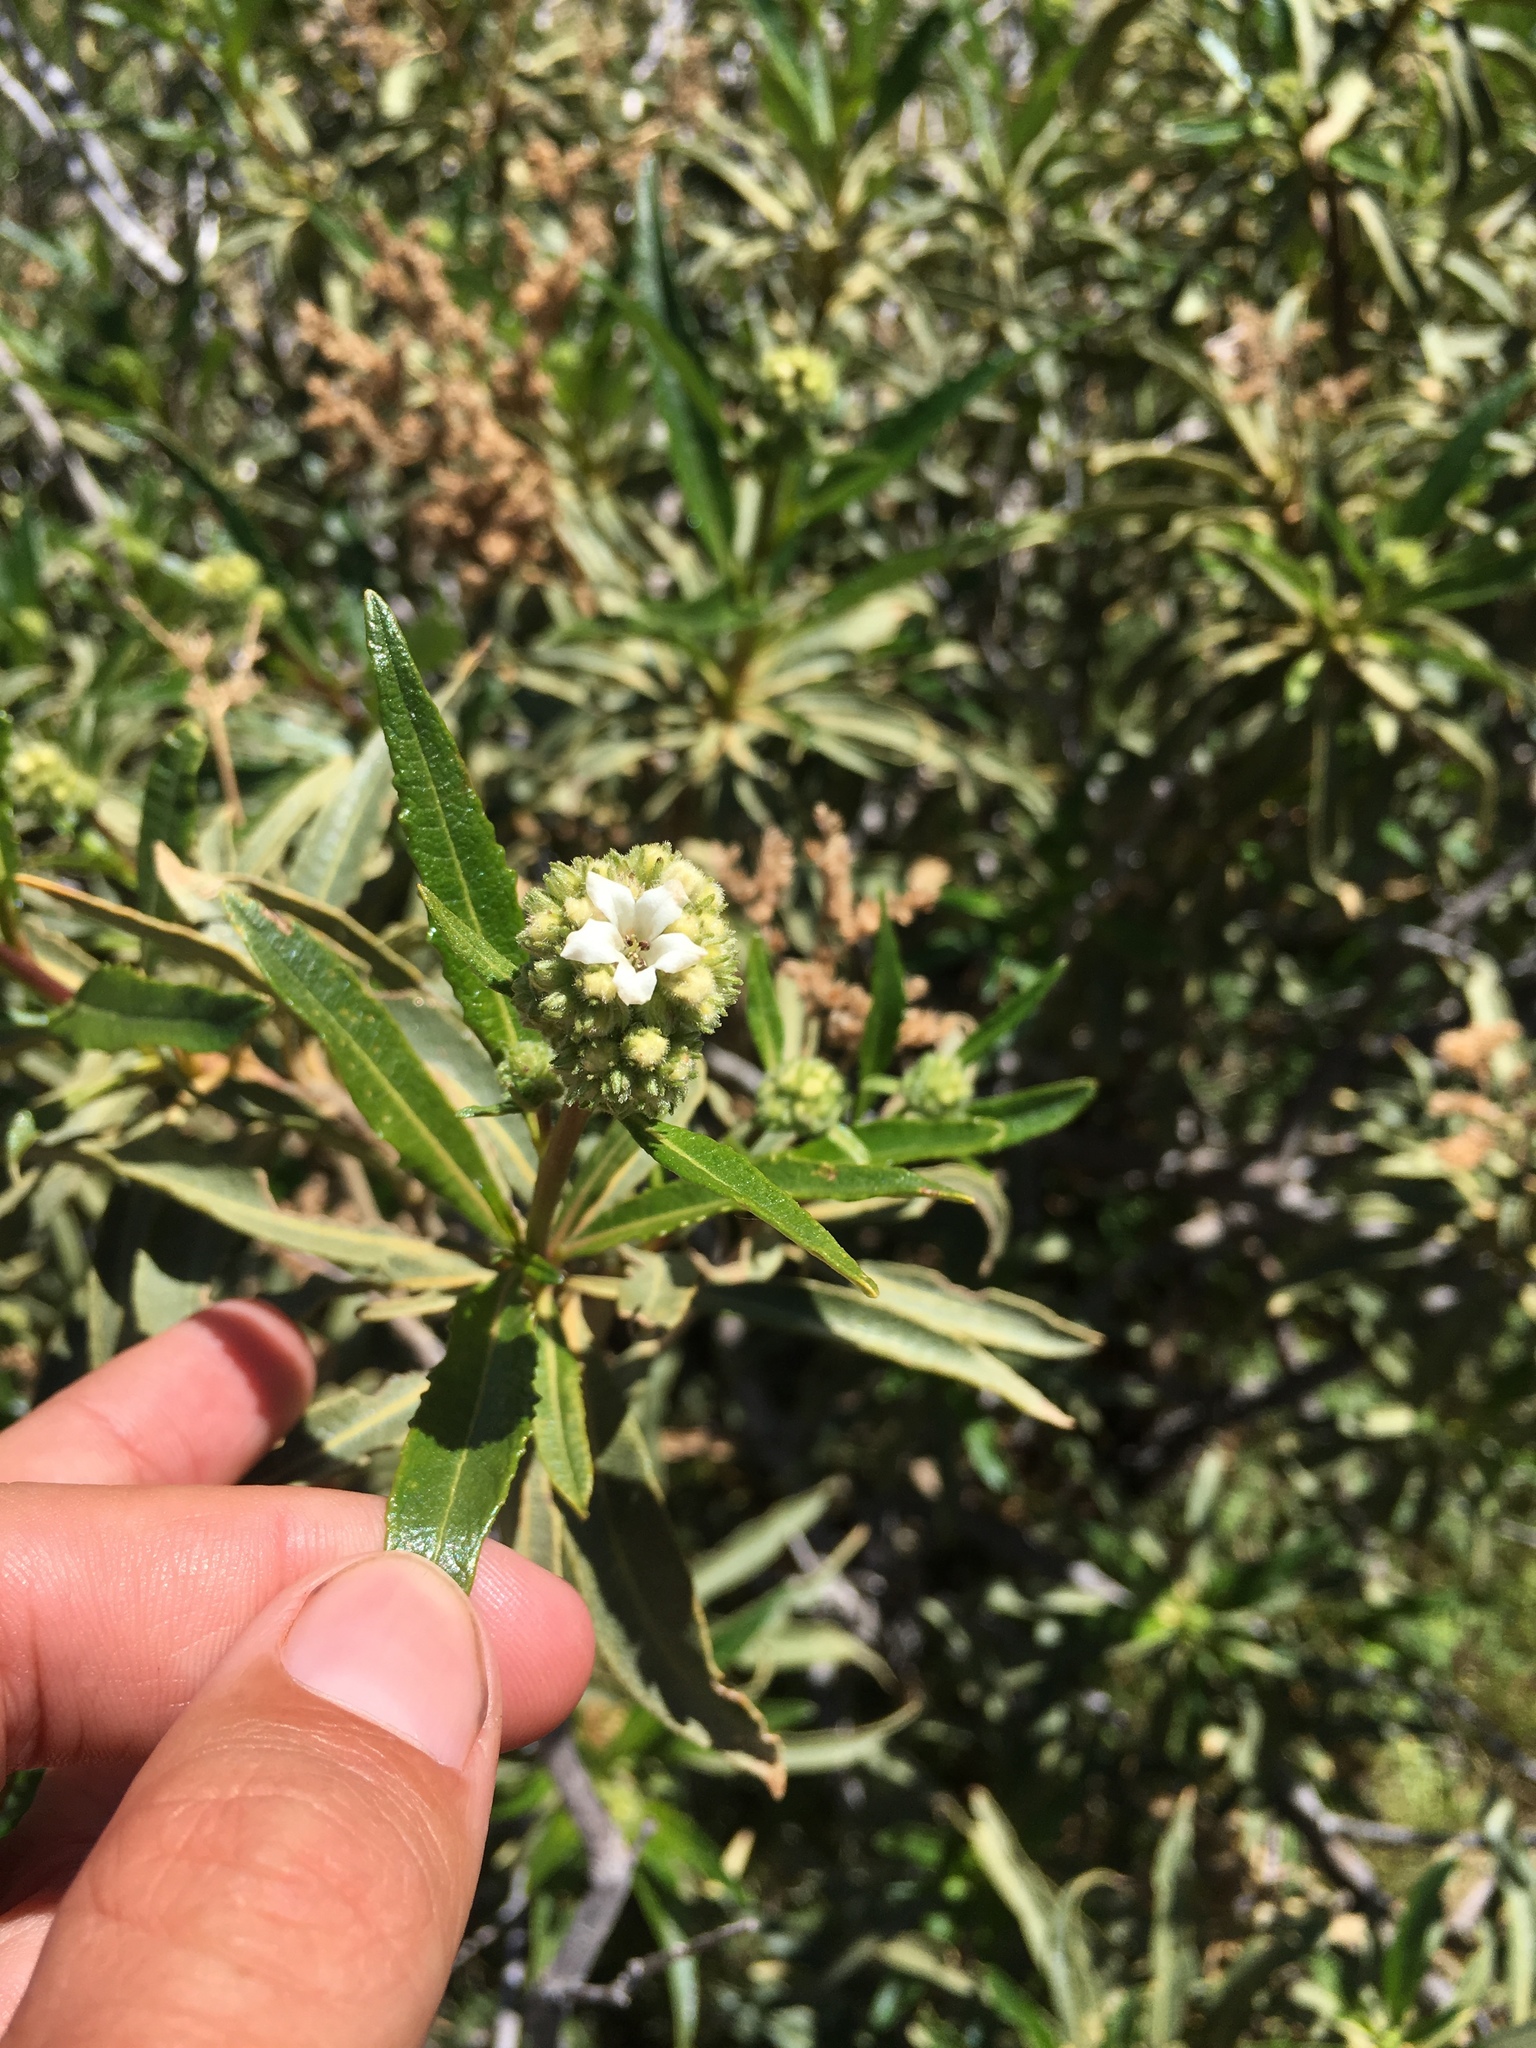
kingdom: Plantae
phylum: Tracheophyta
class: Magnoliopsida
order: Boraginales
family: Namaceae
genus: Eriodictyon
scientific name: Eriodictyon trichocalyx
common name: Hairy yerba-santa
